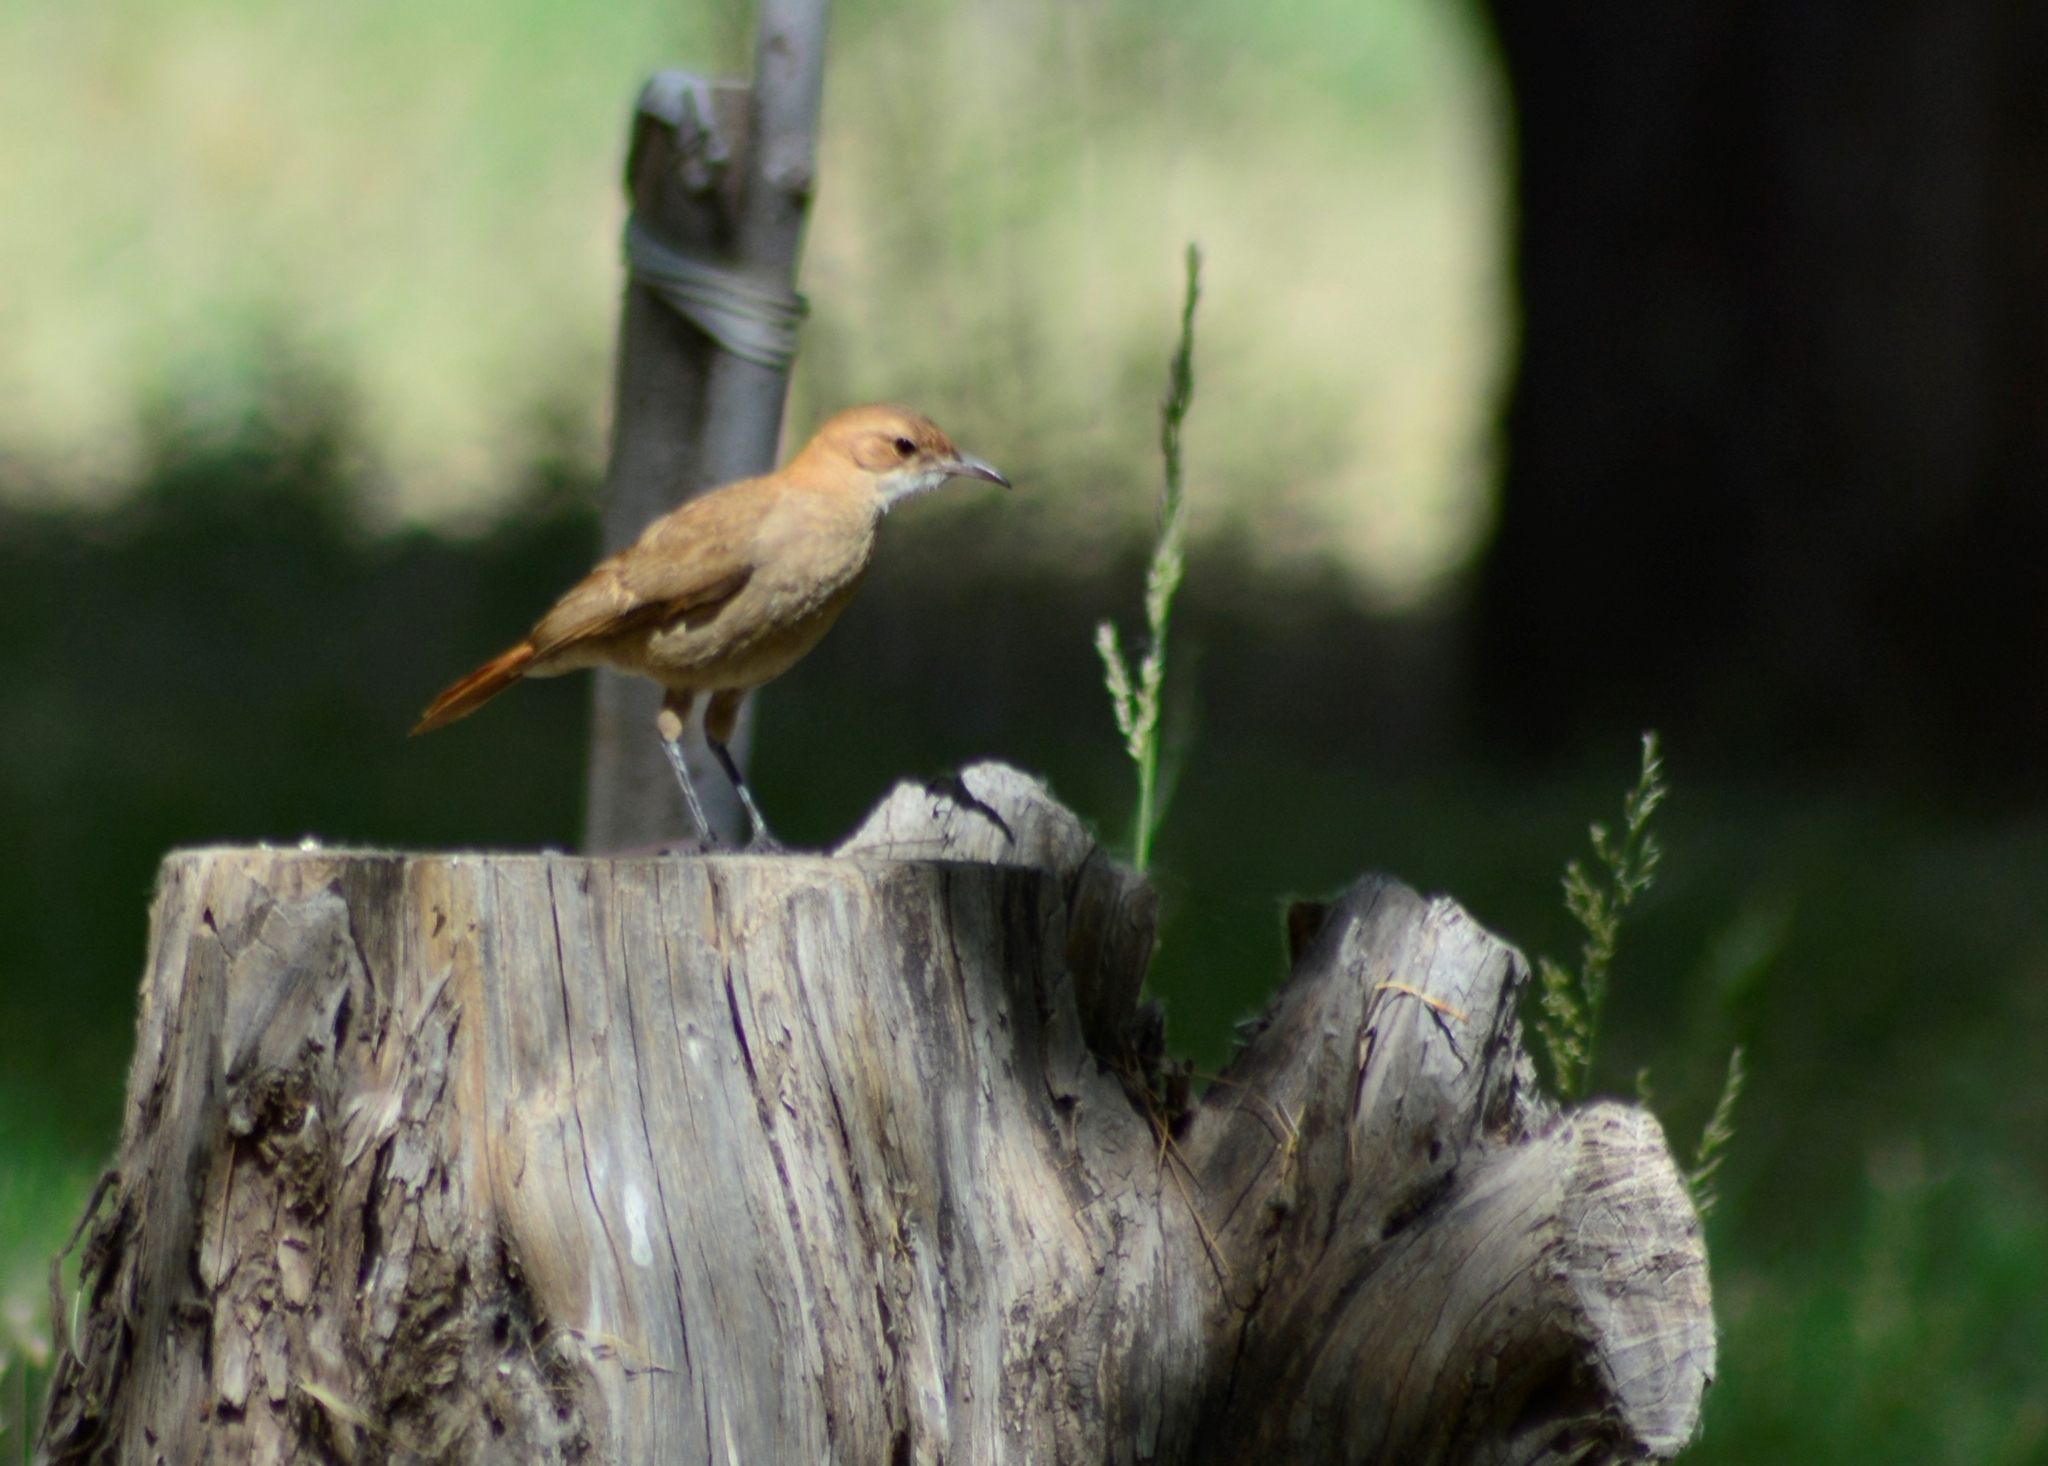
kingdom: Animalia
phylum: Chordata
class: Aves
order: Passeriformes
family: Furnariidae
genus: Furnarius
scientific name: Furnarius rufus
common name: Rufous hornero
